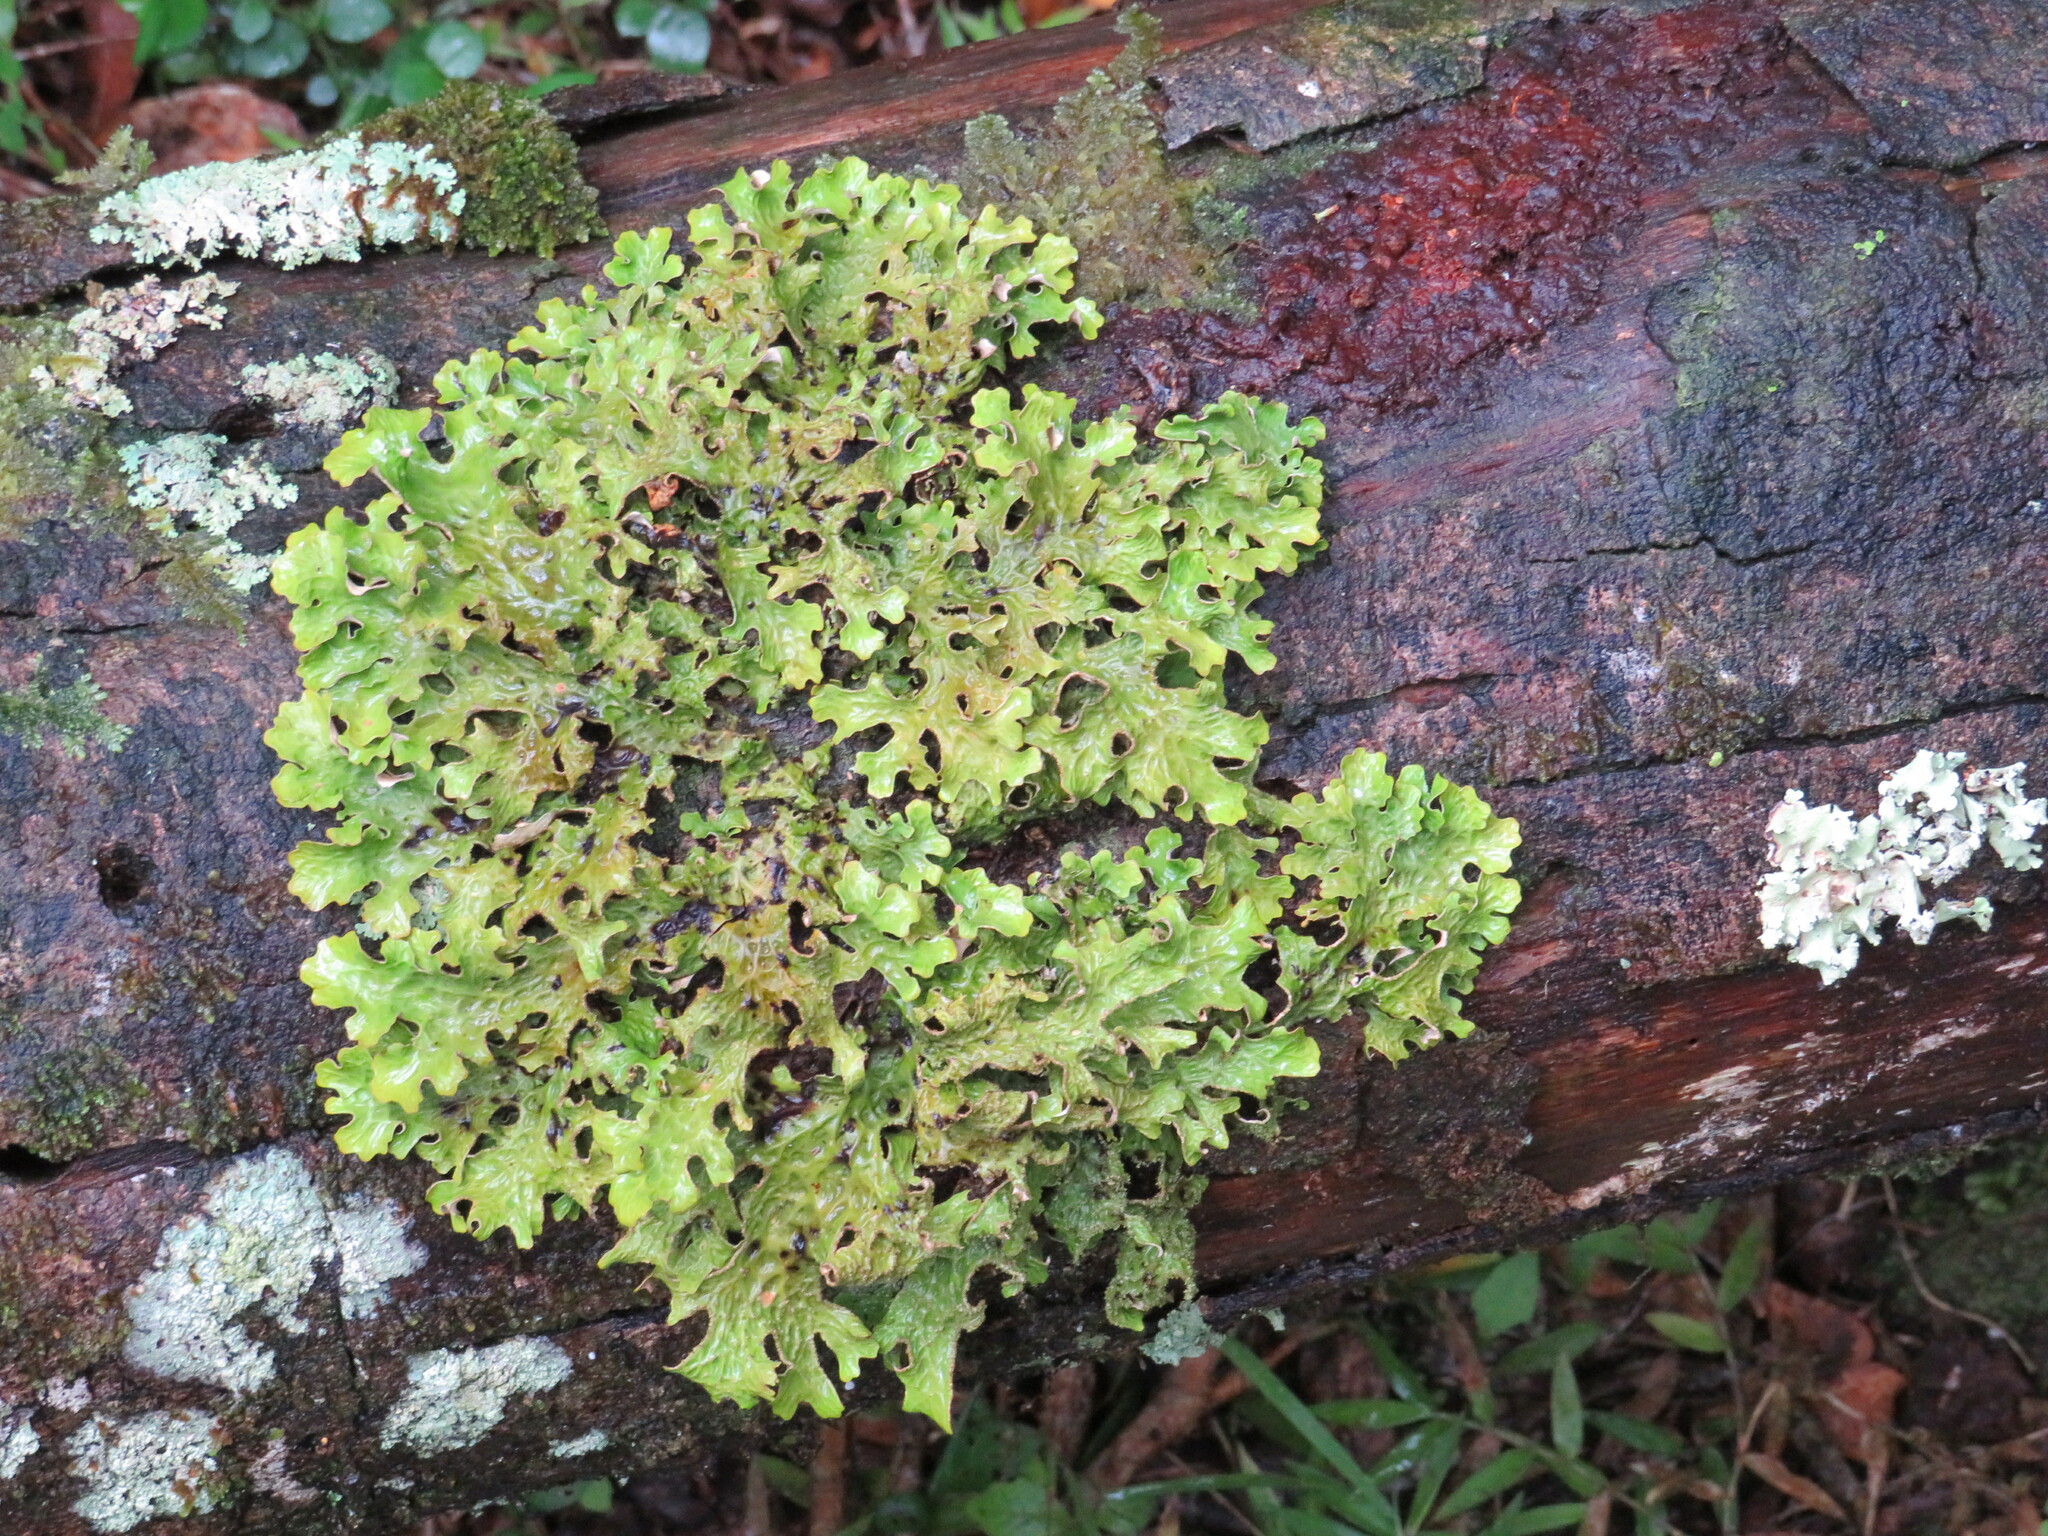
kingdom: Fungi
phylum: Ascomycota
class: Lecanoromycetes
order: Peltigerales
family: Lobariaceae
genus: Lobaria
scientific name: Lobaria pulmonaria
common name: Lungwort
